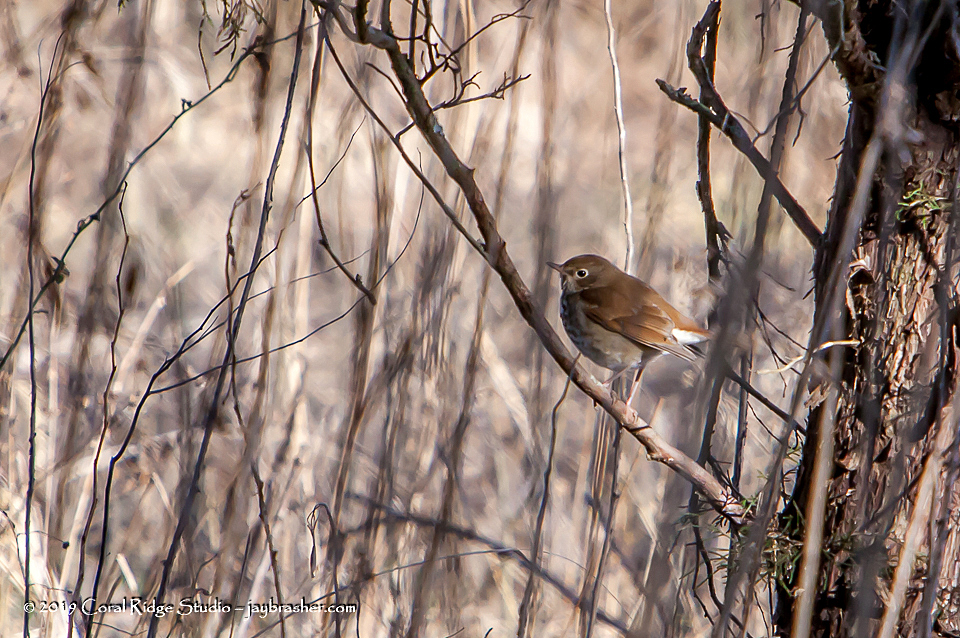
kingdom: Animalia
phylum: Chordata
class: Aves
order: Passeriformes
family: Turdidae
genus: Catharus
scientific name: Catharus guttatus
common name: Hermit thrush
